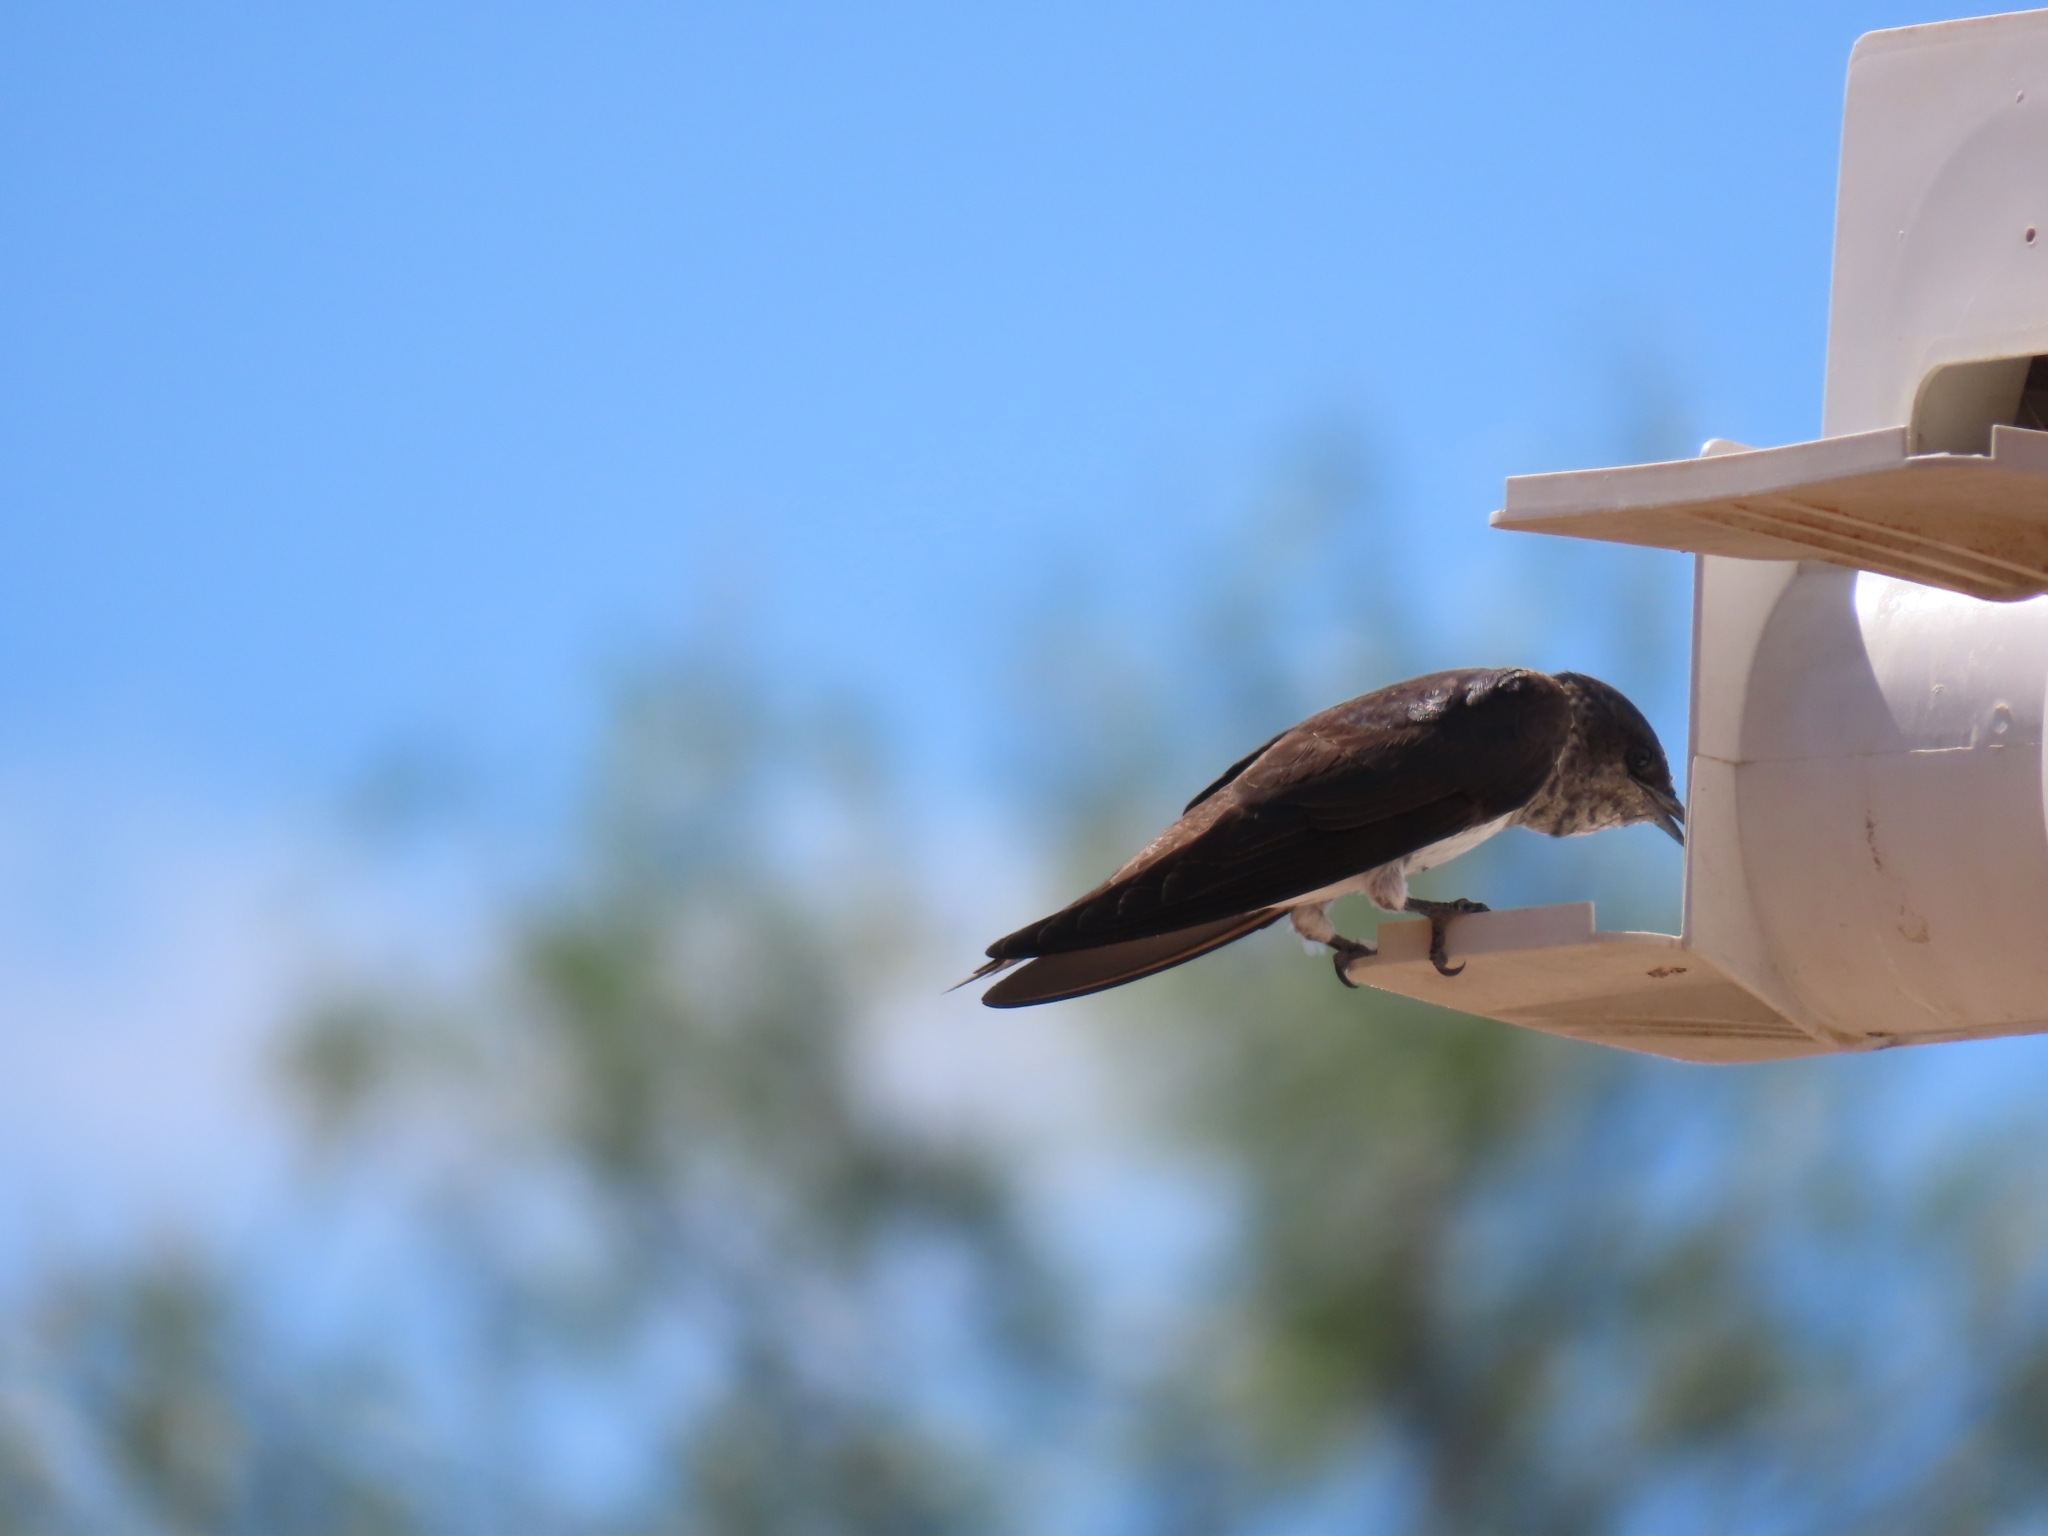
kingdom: Animalia
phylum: Chordata
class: Aves
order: Passeriformes
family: Hirundinidae
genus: Progne
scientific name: Progne subis
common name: Purple martin
